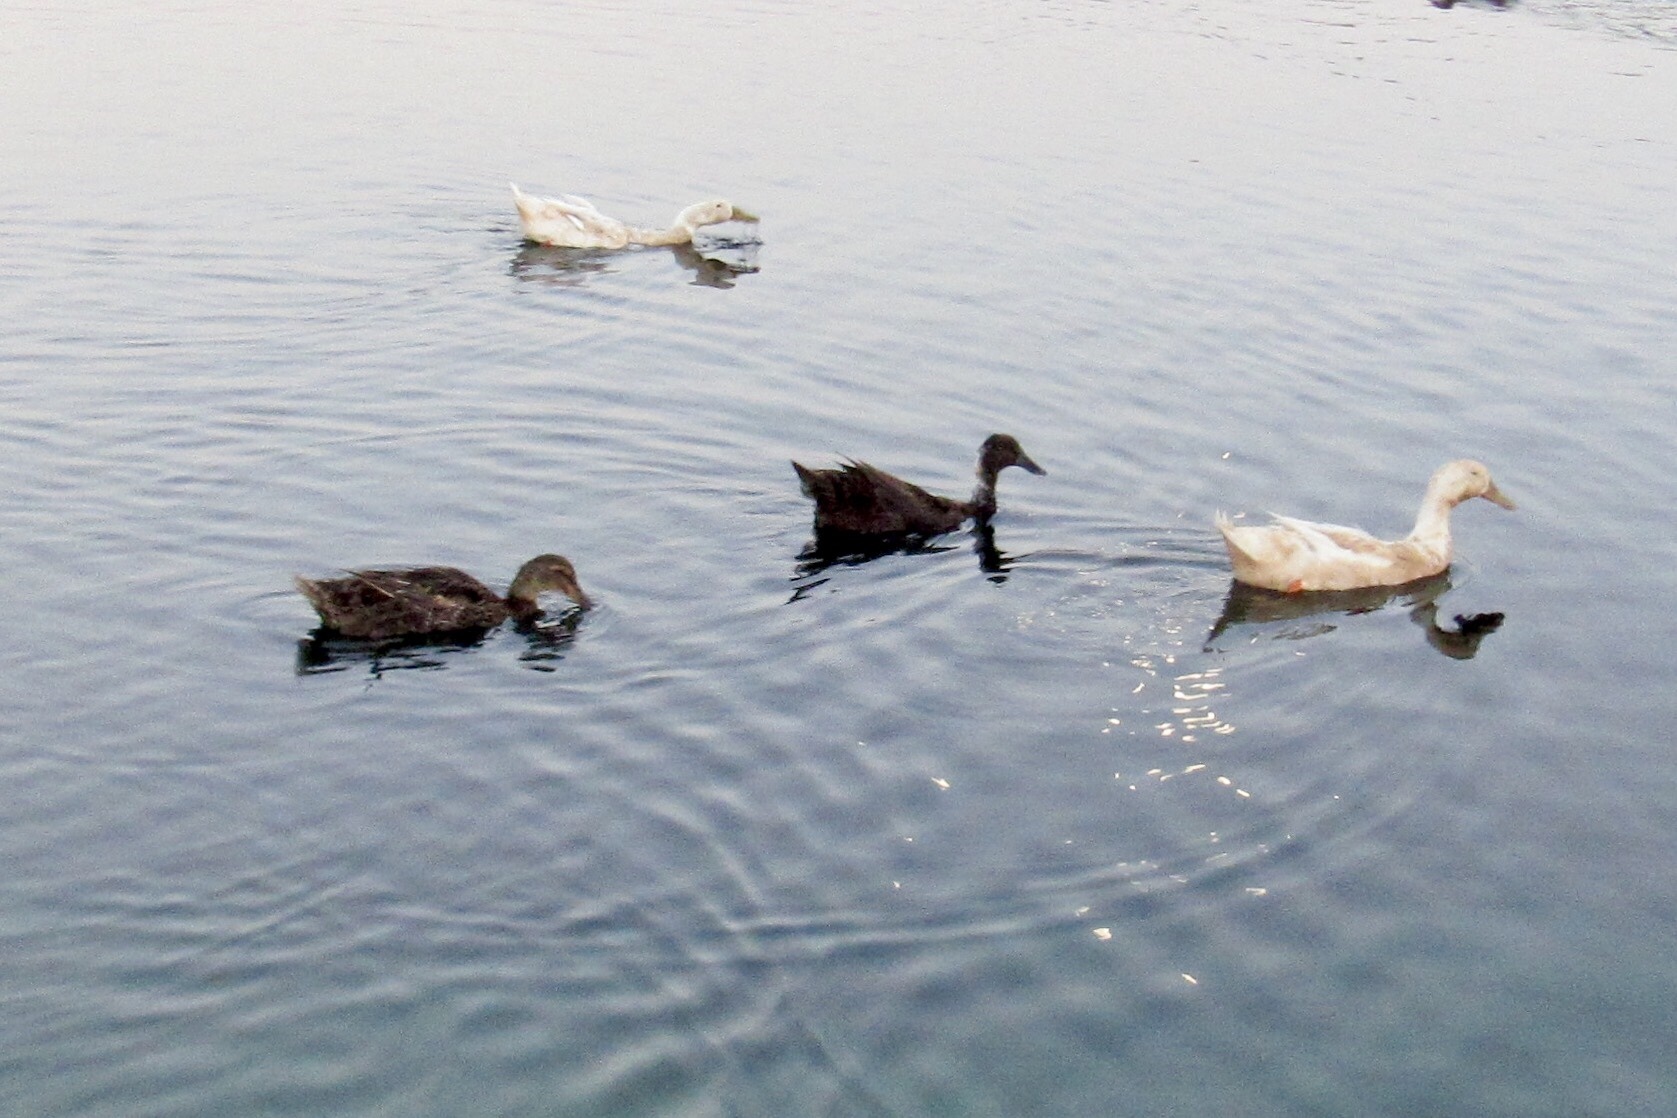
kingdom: Animalia
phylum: Chordata
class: Aves
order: Anseriformes
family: Anatidae
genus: Anas
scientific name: Anas platyrhynchos
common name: Mallard
